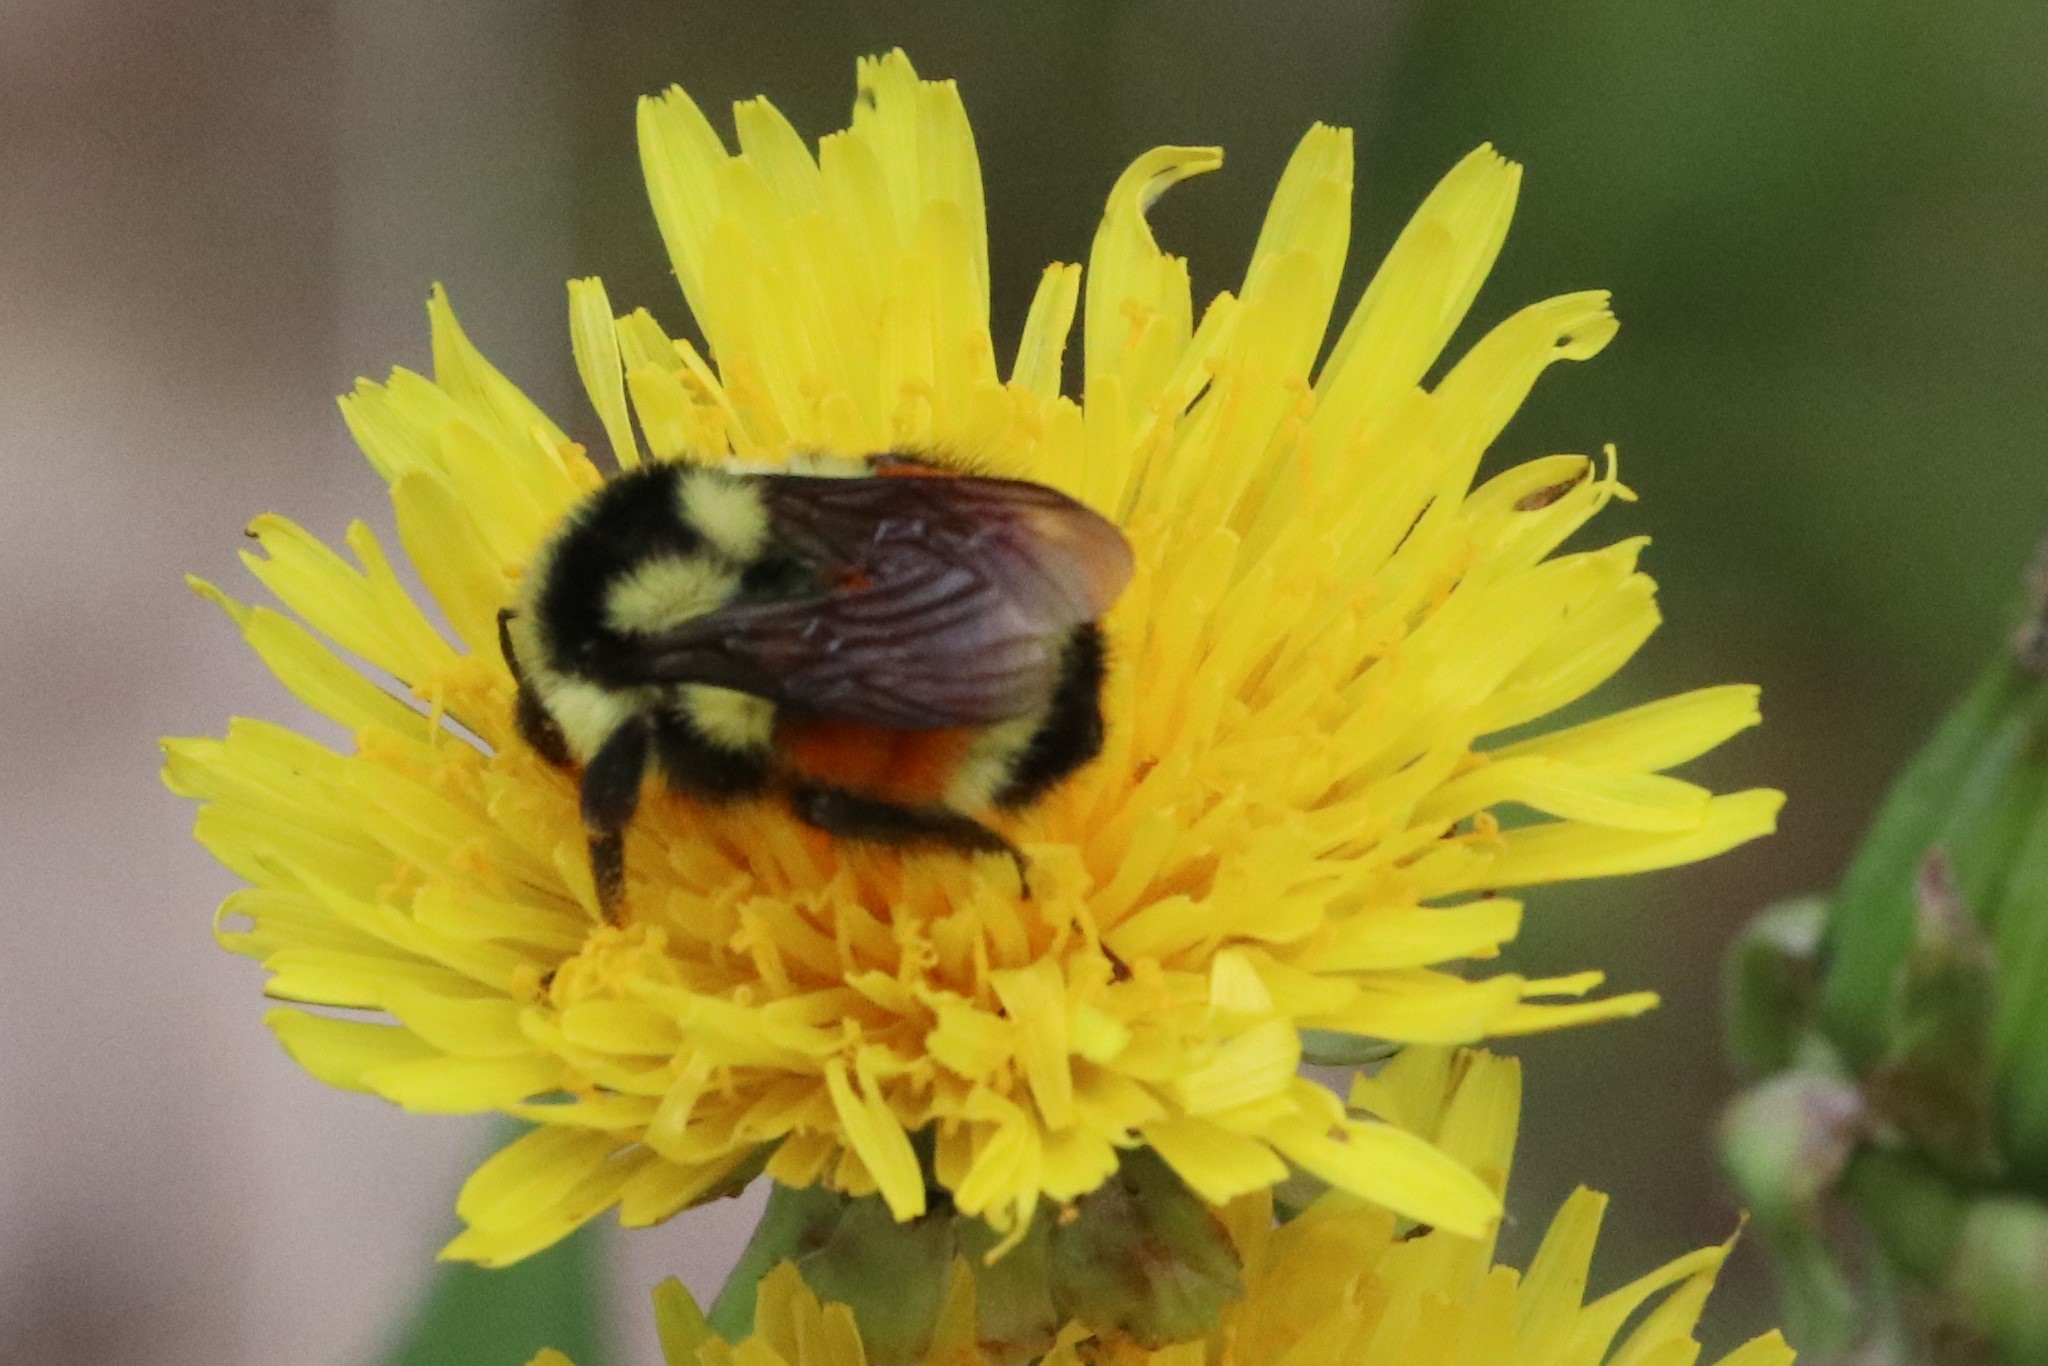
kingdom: Animalia
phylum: Arthropoda
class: Insecta
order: Hymenoptera
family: Apidae
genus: Bombus
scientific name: Bombus ternarius
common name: Tri-colored bumble bee
